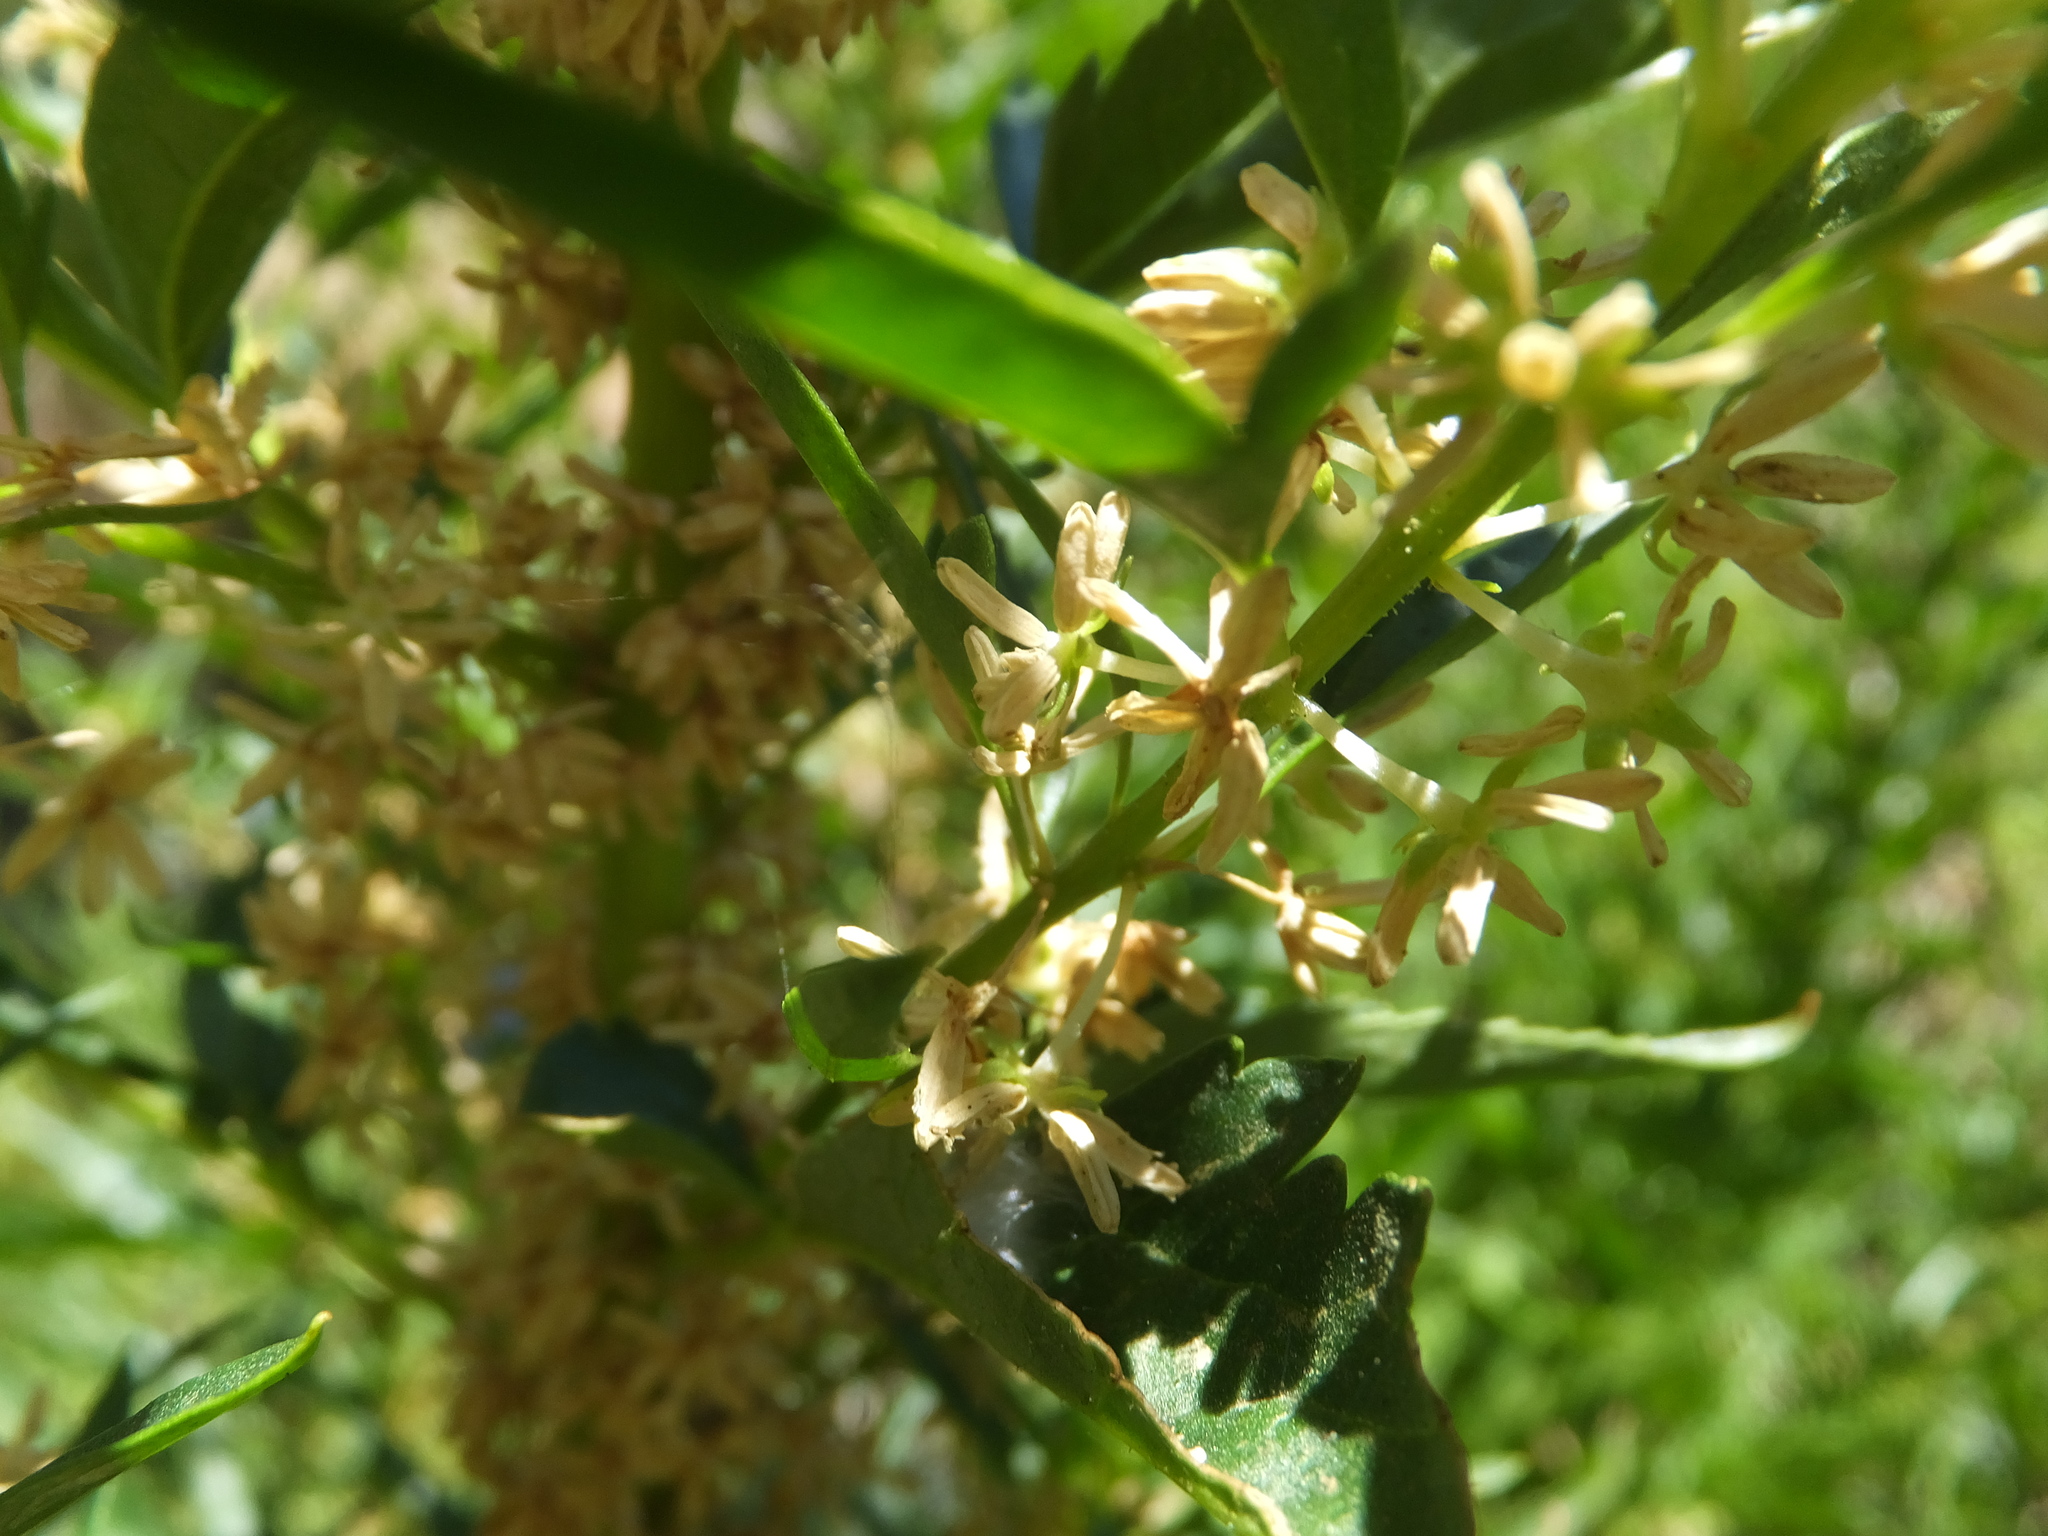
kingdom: Plantae
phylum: Tracheophyta
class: Magnoliopsida
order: Cucurbitales
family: Datiscaceae
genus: Datisca
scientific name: Datisca glomerata
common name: Durango-root
